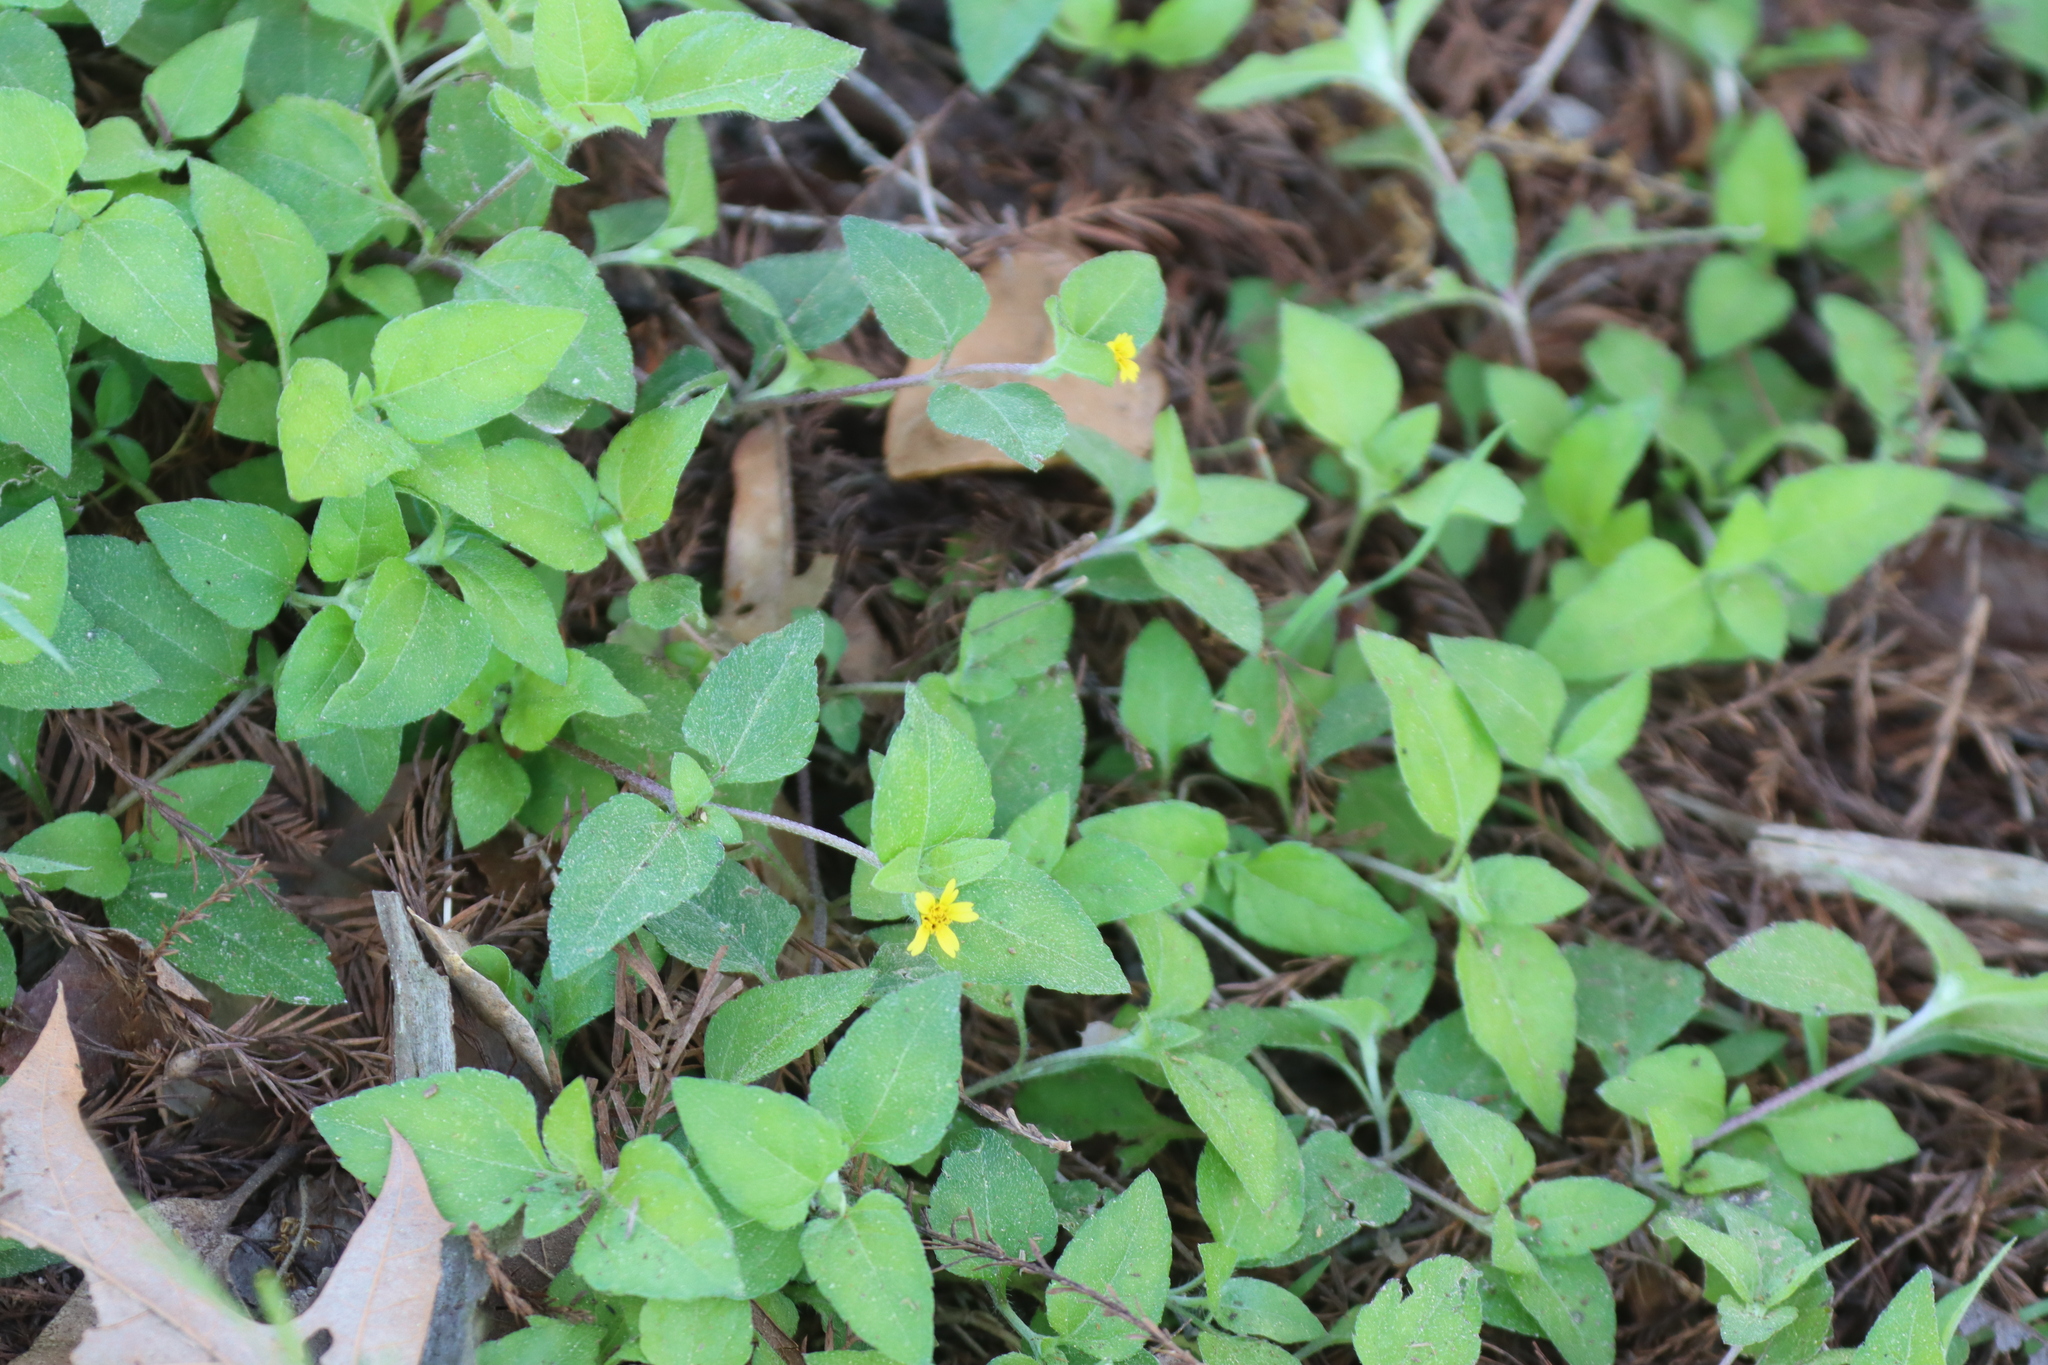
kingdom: Plantae
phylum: Tracheophyta
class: Magnoliopsida
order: Asterales
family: Asteraceae
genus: Calyptocarpus
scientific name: Calyptocarpus vialis
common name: Straggler daisy
